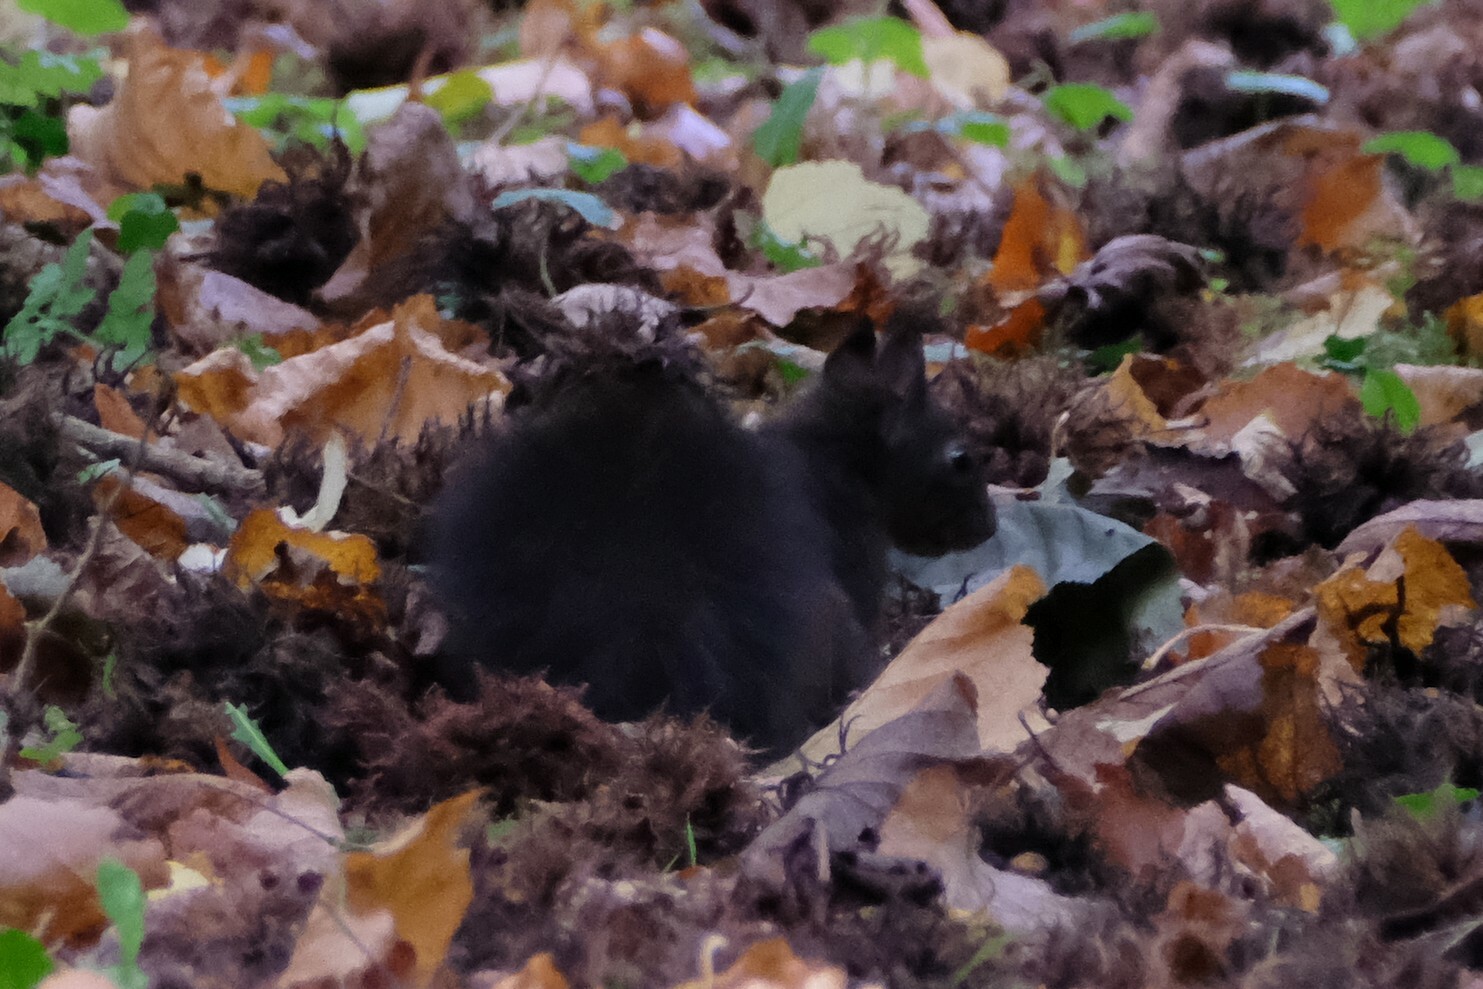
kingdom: Animalia
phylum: Chordata
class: Mammalia
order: Rodentia
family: Sciuridae
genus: Sciurus
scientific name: Sciurus vulgaris
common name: Eurasian red squirrel
